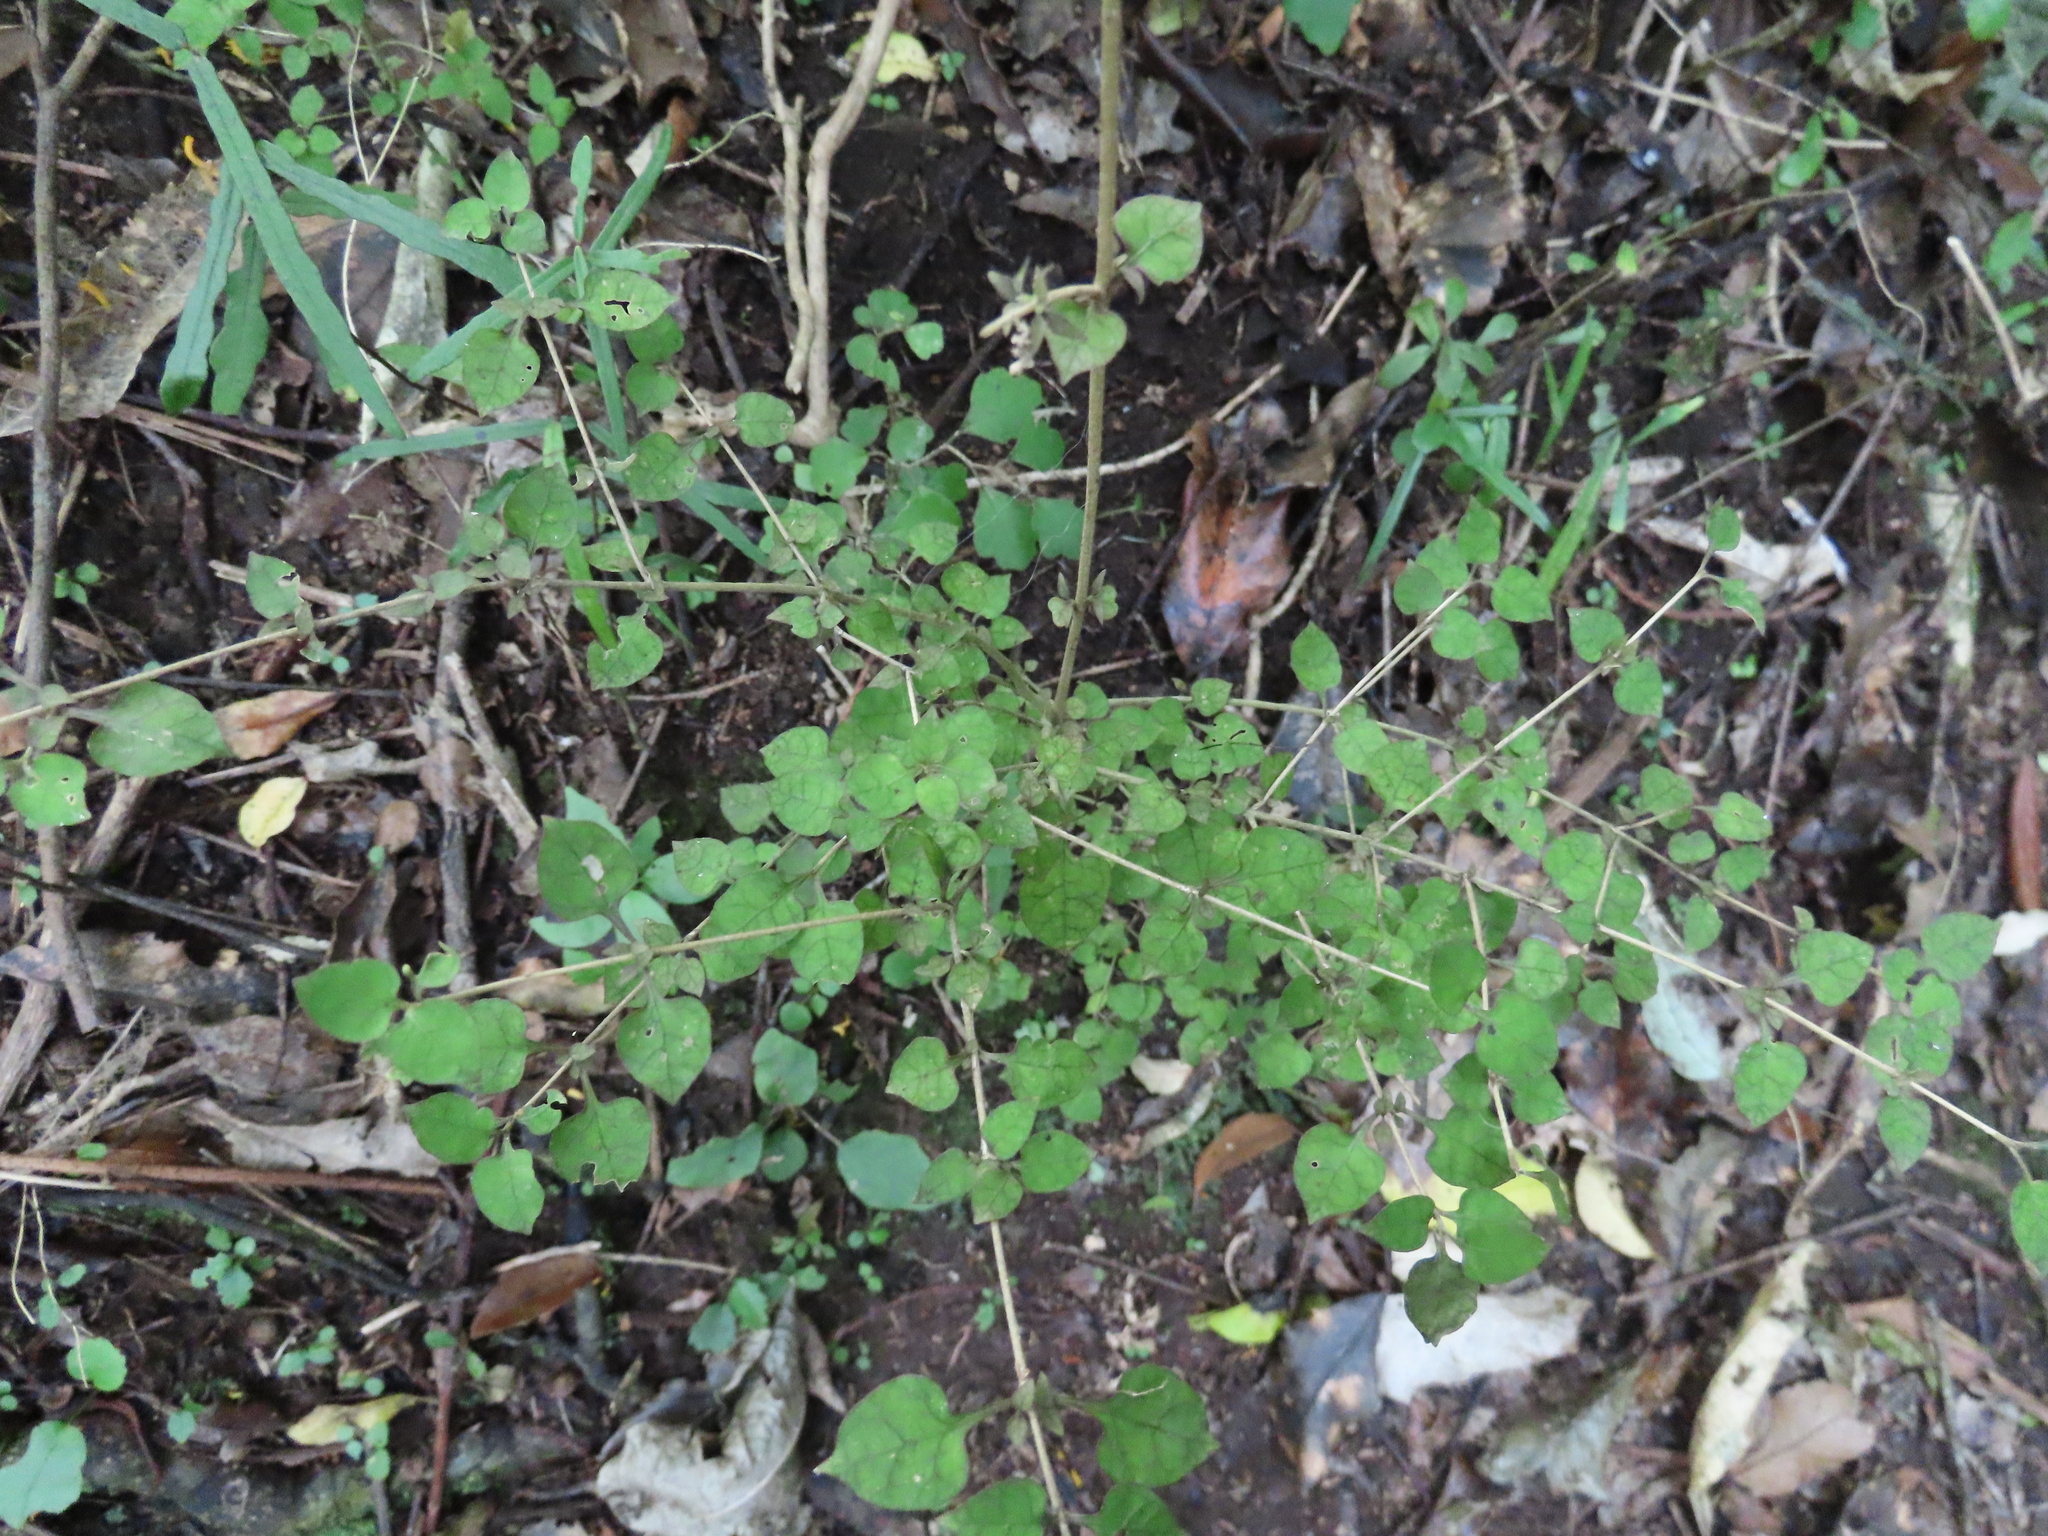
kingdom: Plantae
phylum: Tracheophyta
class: Magnoliopsida
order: Gentianales
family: Rubiaceae
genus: Coprosma
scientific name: Coprosma areolata
